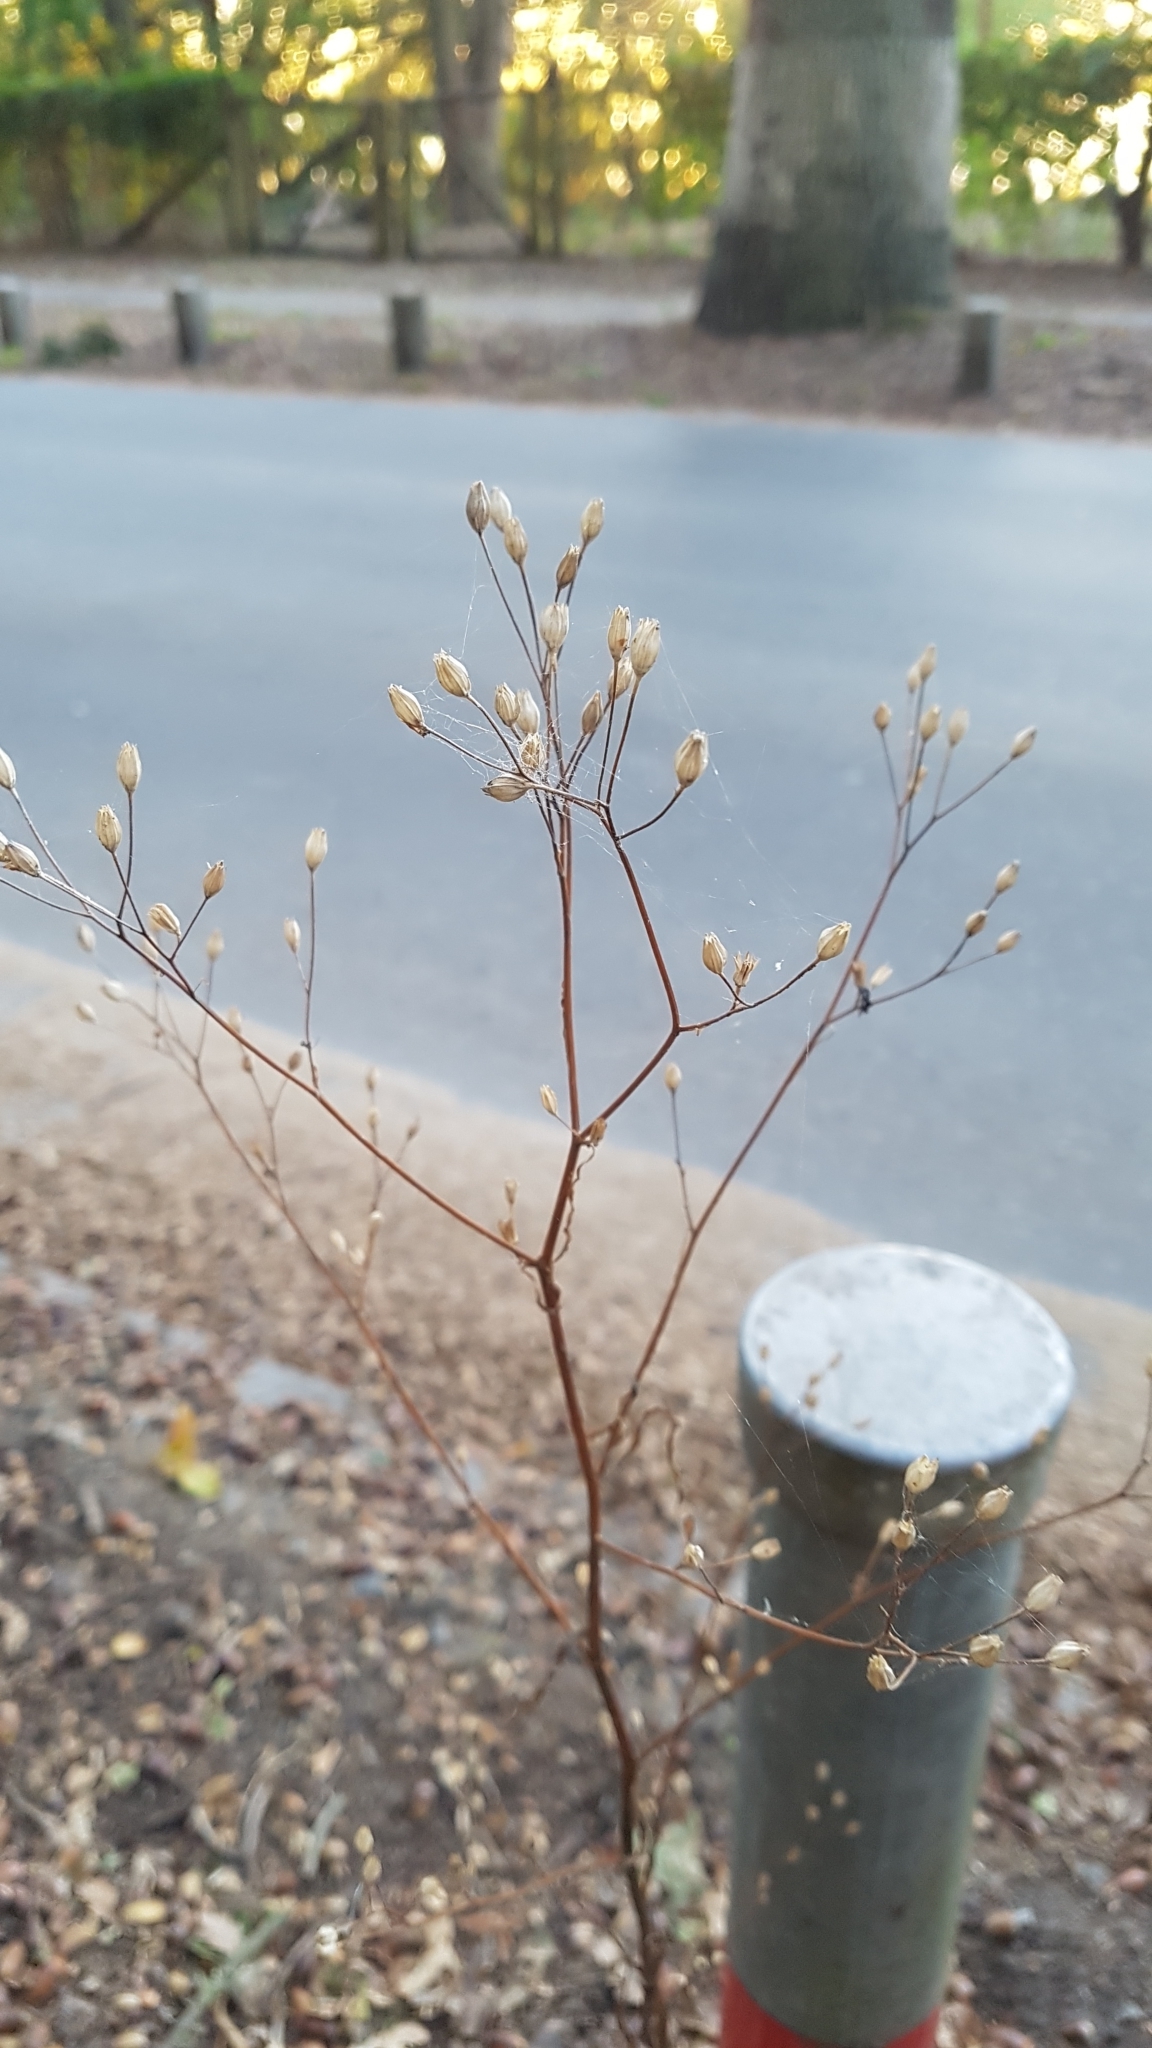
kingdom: Plantae
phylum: Tracheophyta
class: Magnoliopsida
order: Asterales
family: Asteraceae
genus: Lapsana
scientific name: Lapsana communis
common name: Nipplewort
